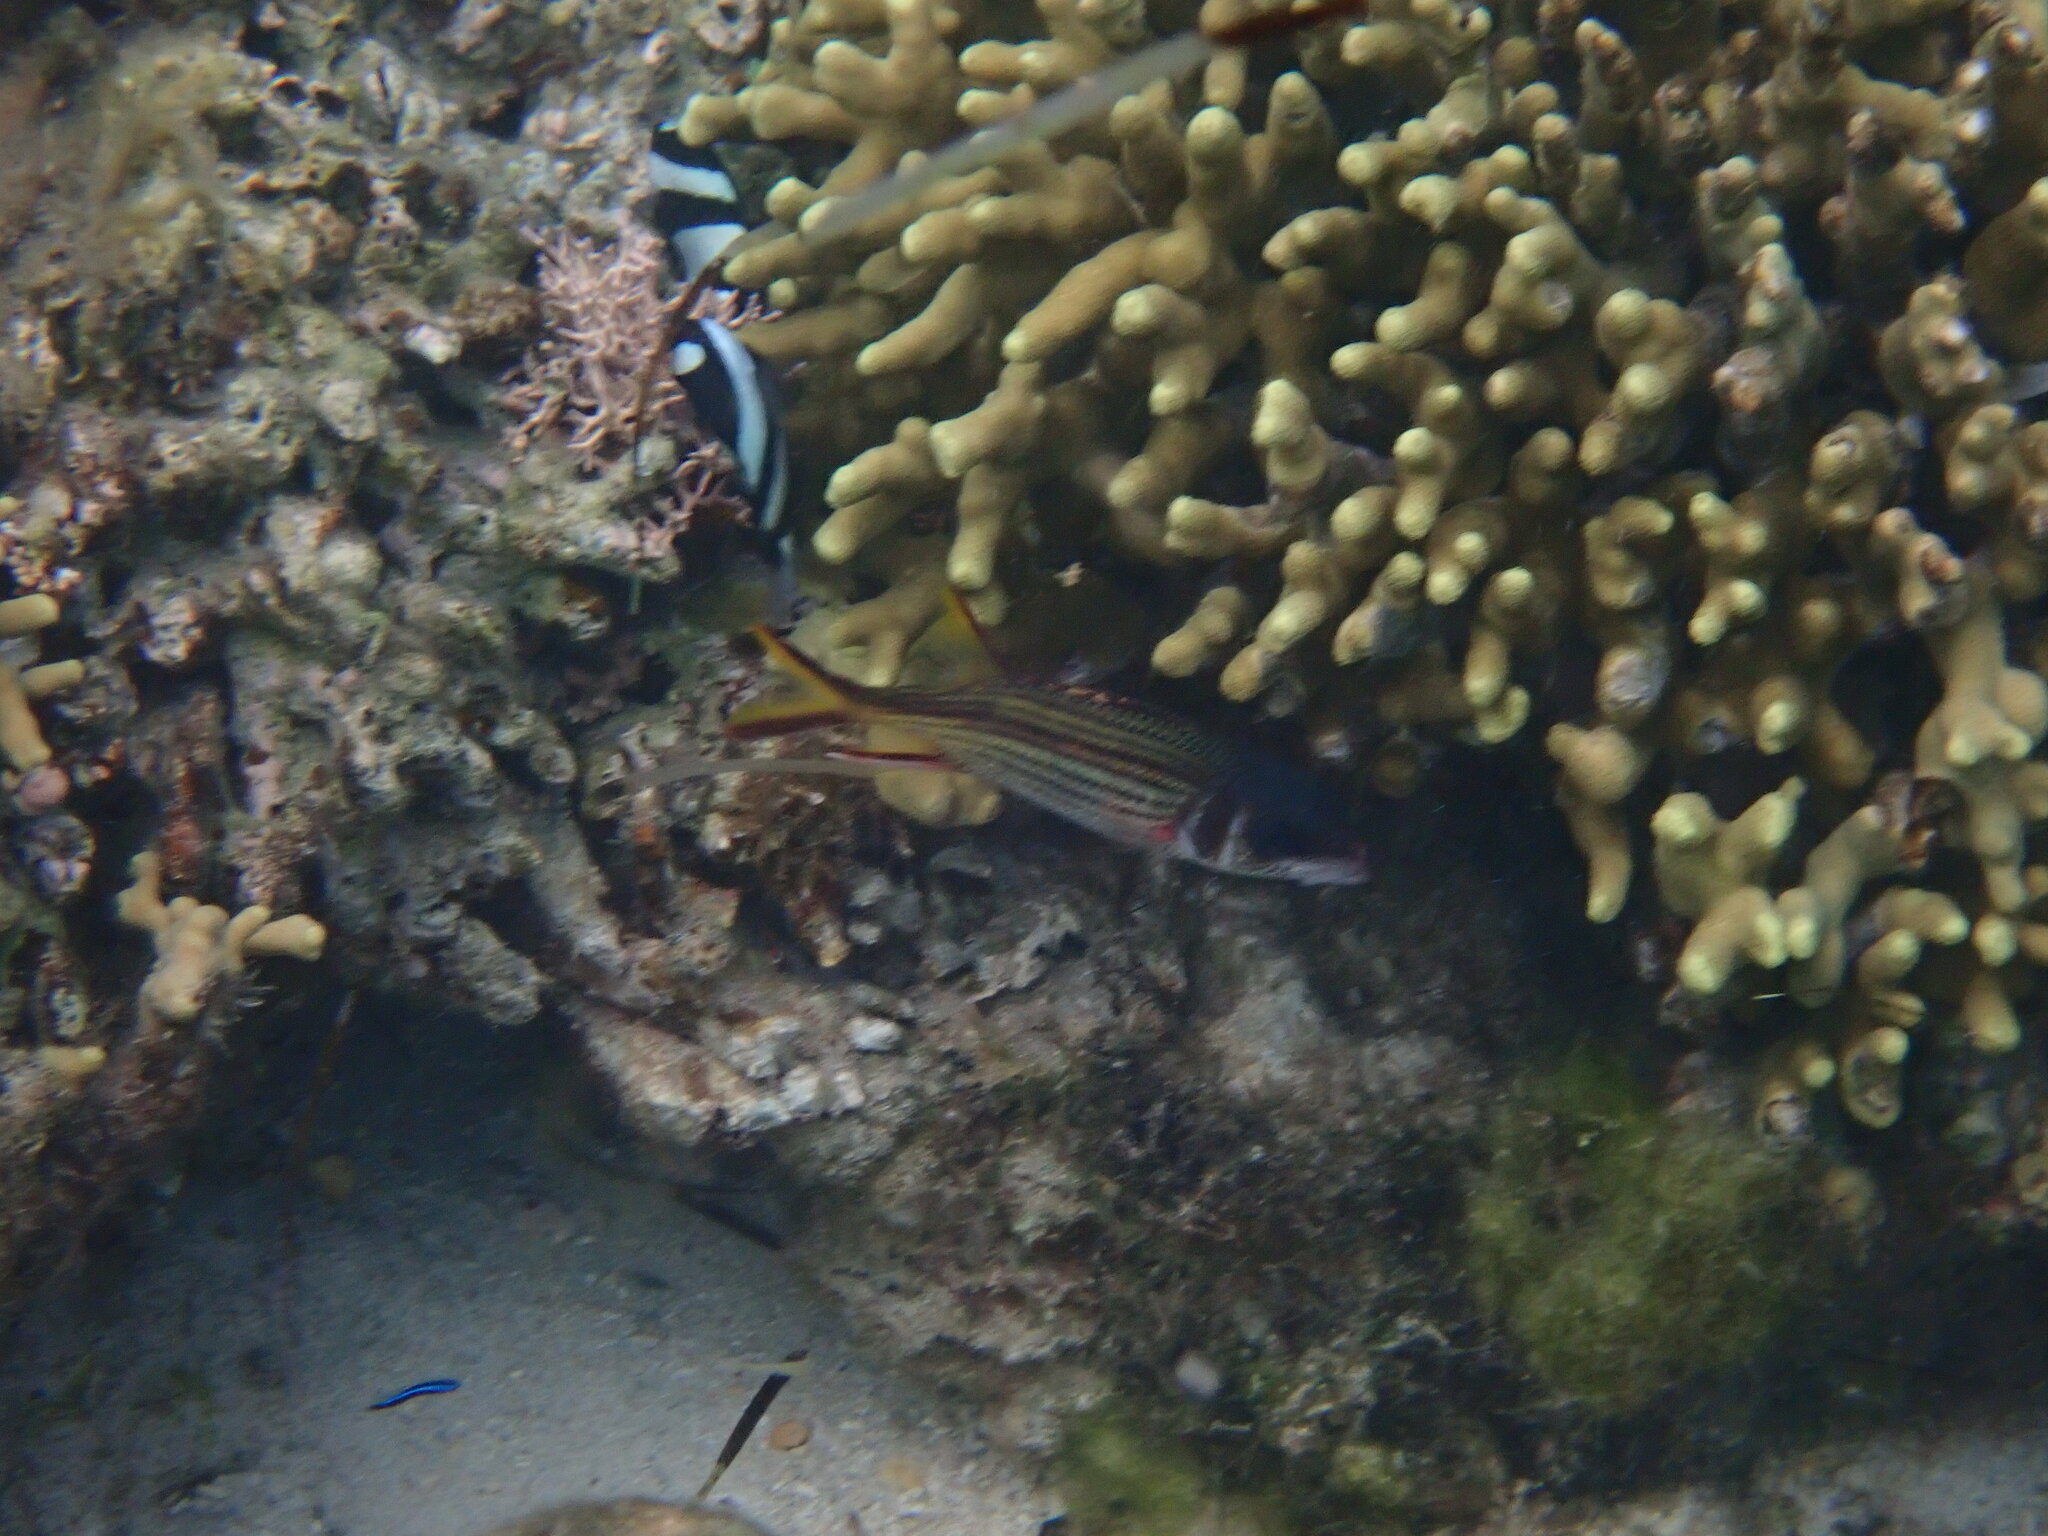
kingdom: Animalia
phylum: Chordata
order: Beryciformes
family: Holocentridae
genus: Neoniphon
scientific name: Neoniphon sammara
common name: Sammara squirrelfish
